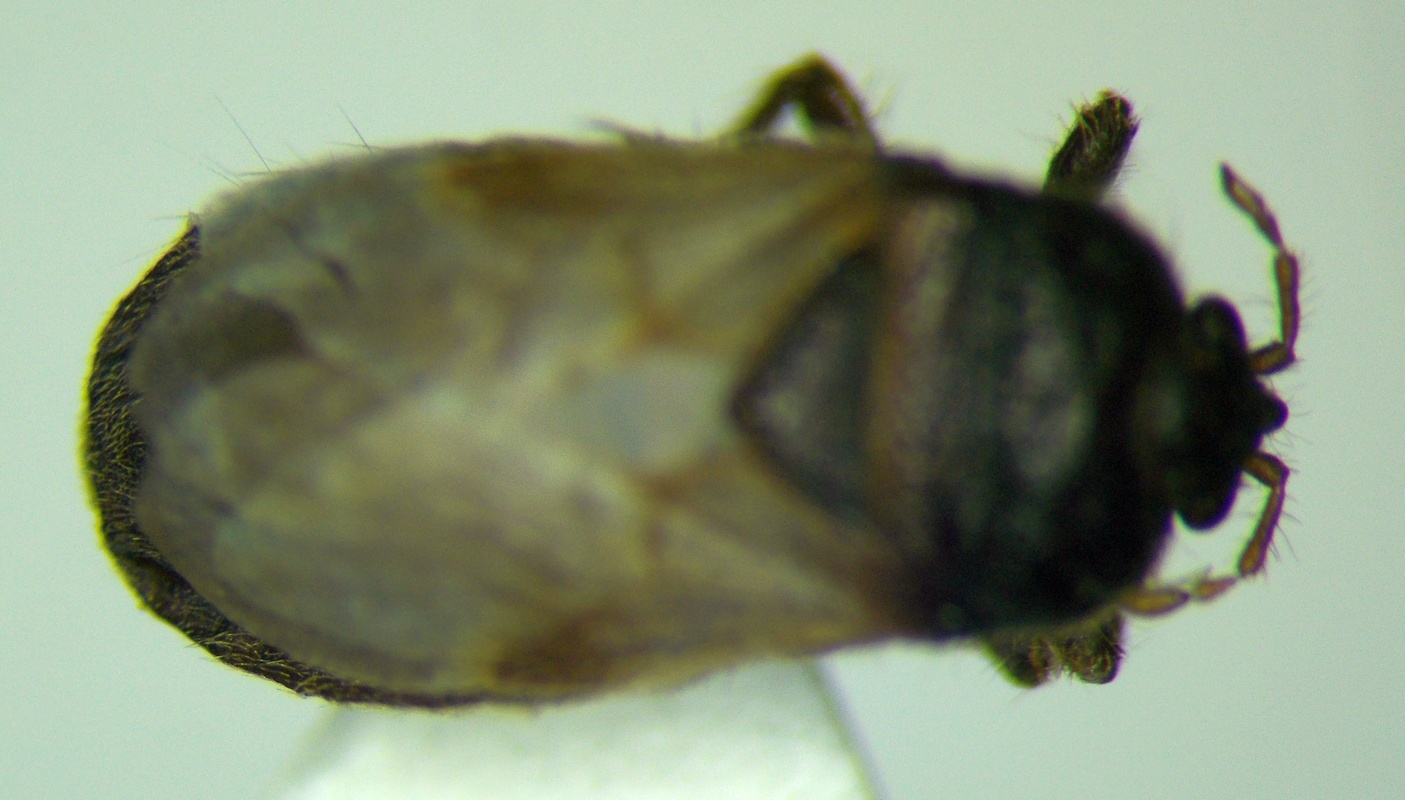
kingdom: Animalia
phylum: Arthropoda
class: Insecta
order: Hemiptera
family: Blissidae
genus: Blissus
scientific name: Blissus putoni
